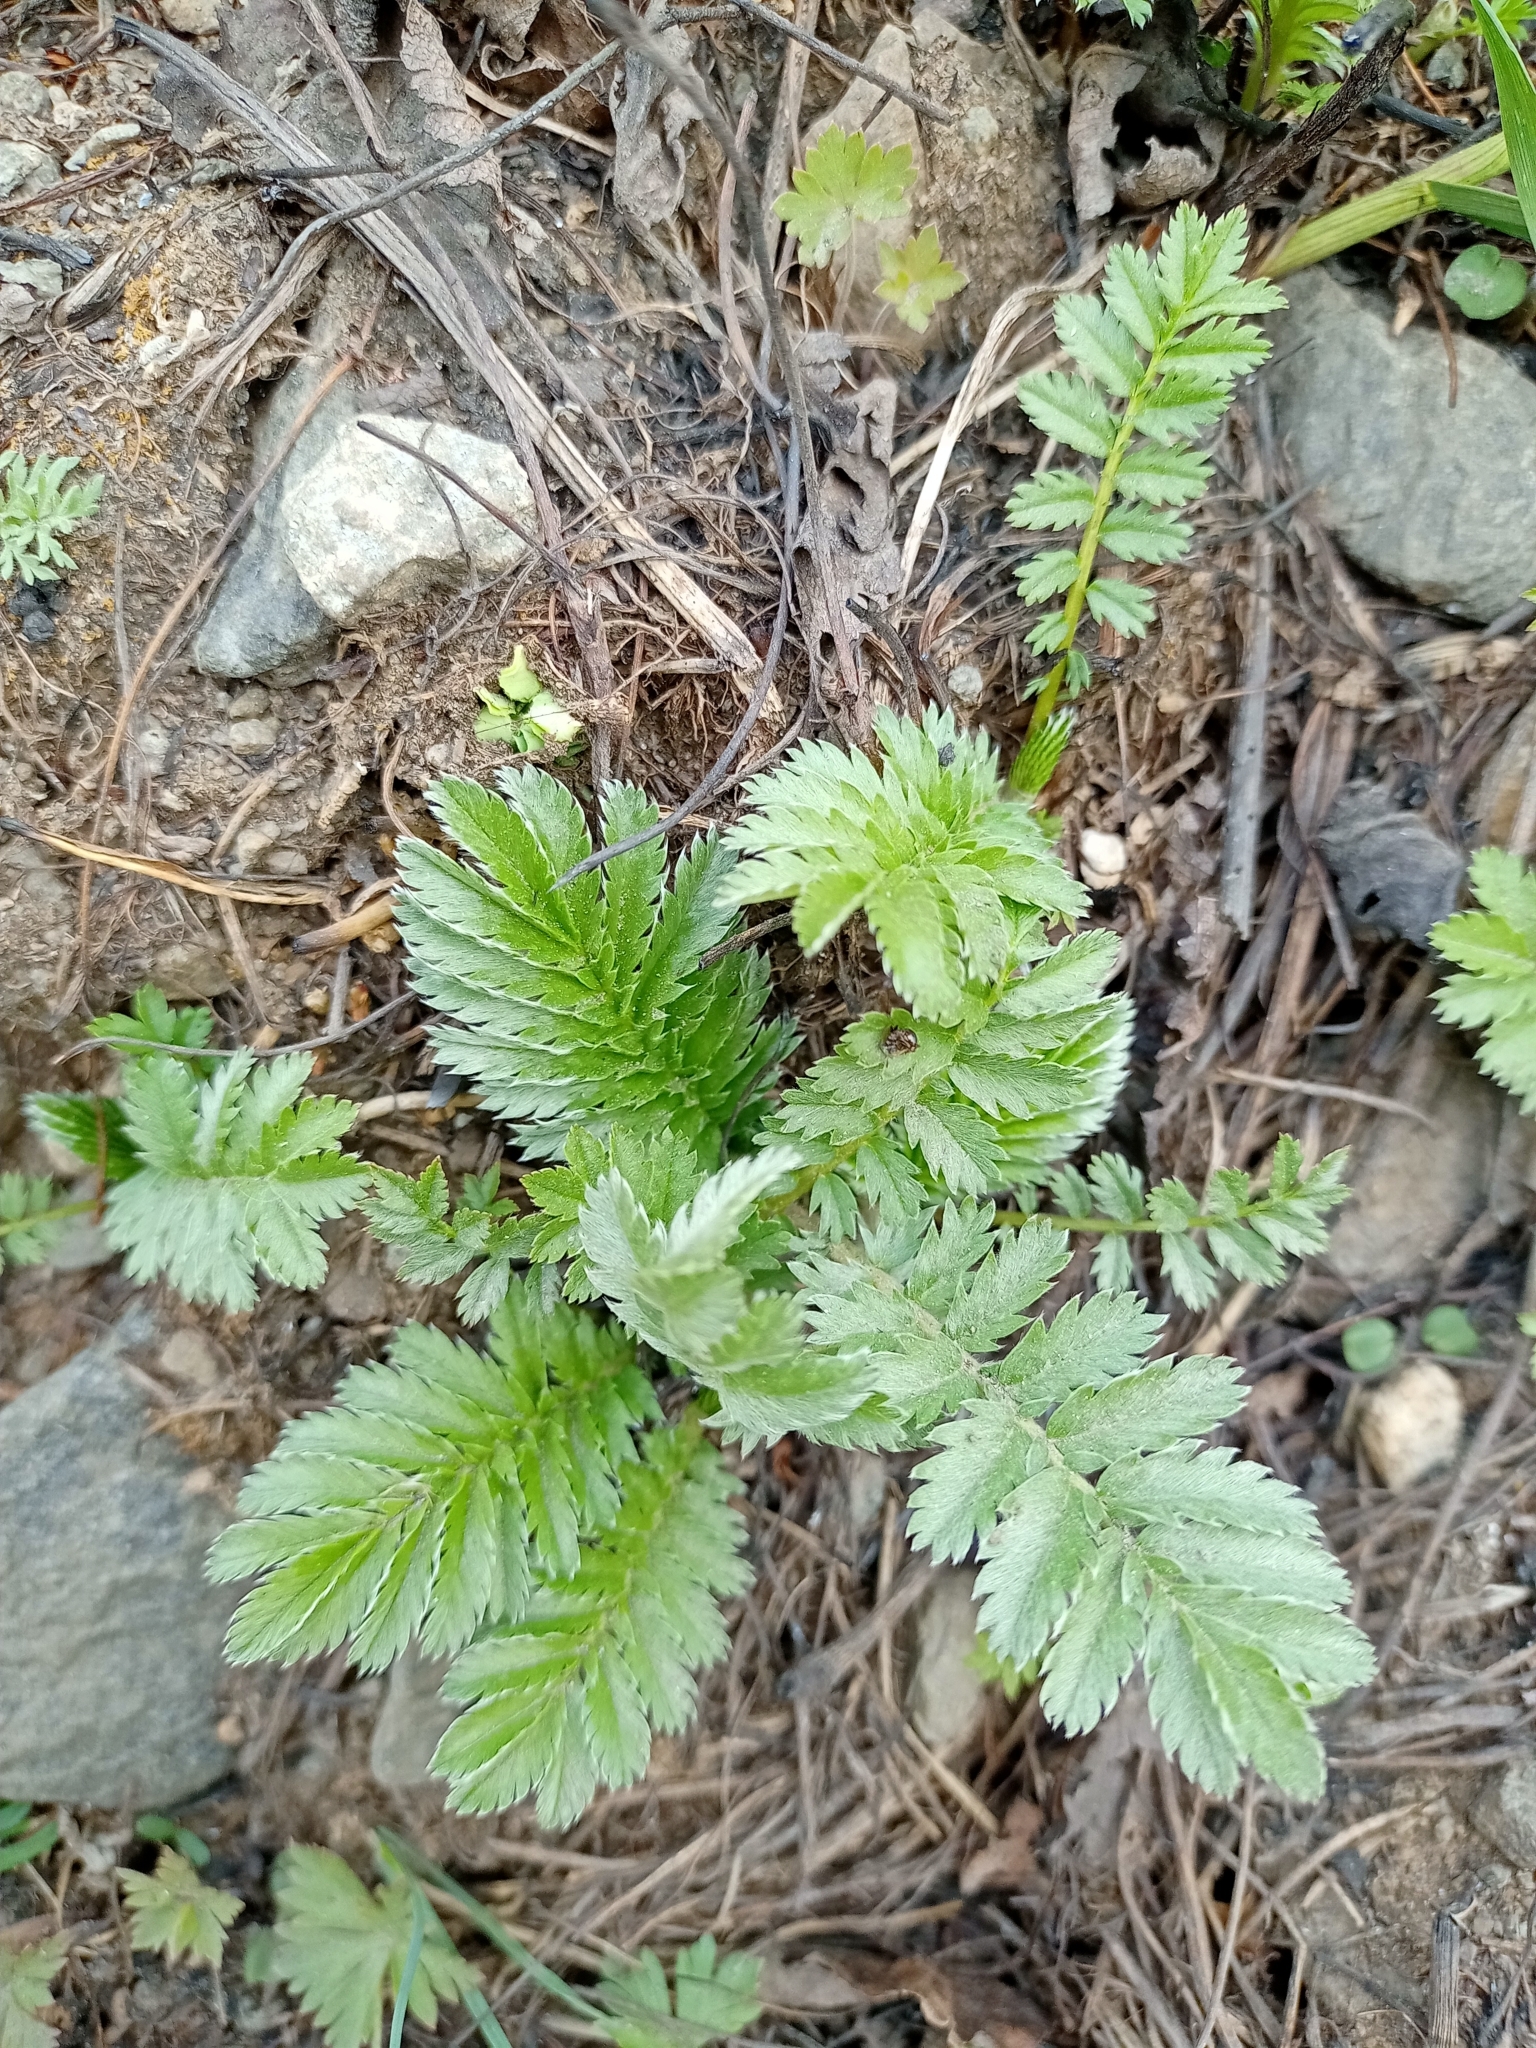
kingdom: Plantae
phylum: Tracheophyta
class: Magnoliopsida
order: Rosales
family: Rosaceae
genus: Argentina
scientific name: Argentina anserina
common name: Common silverweed
